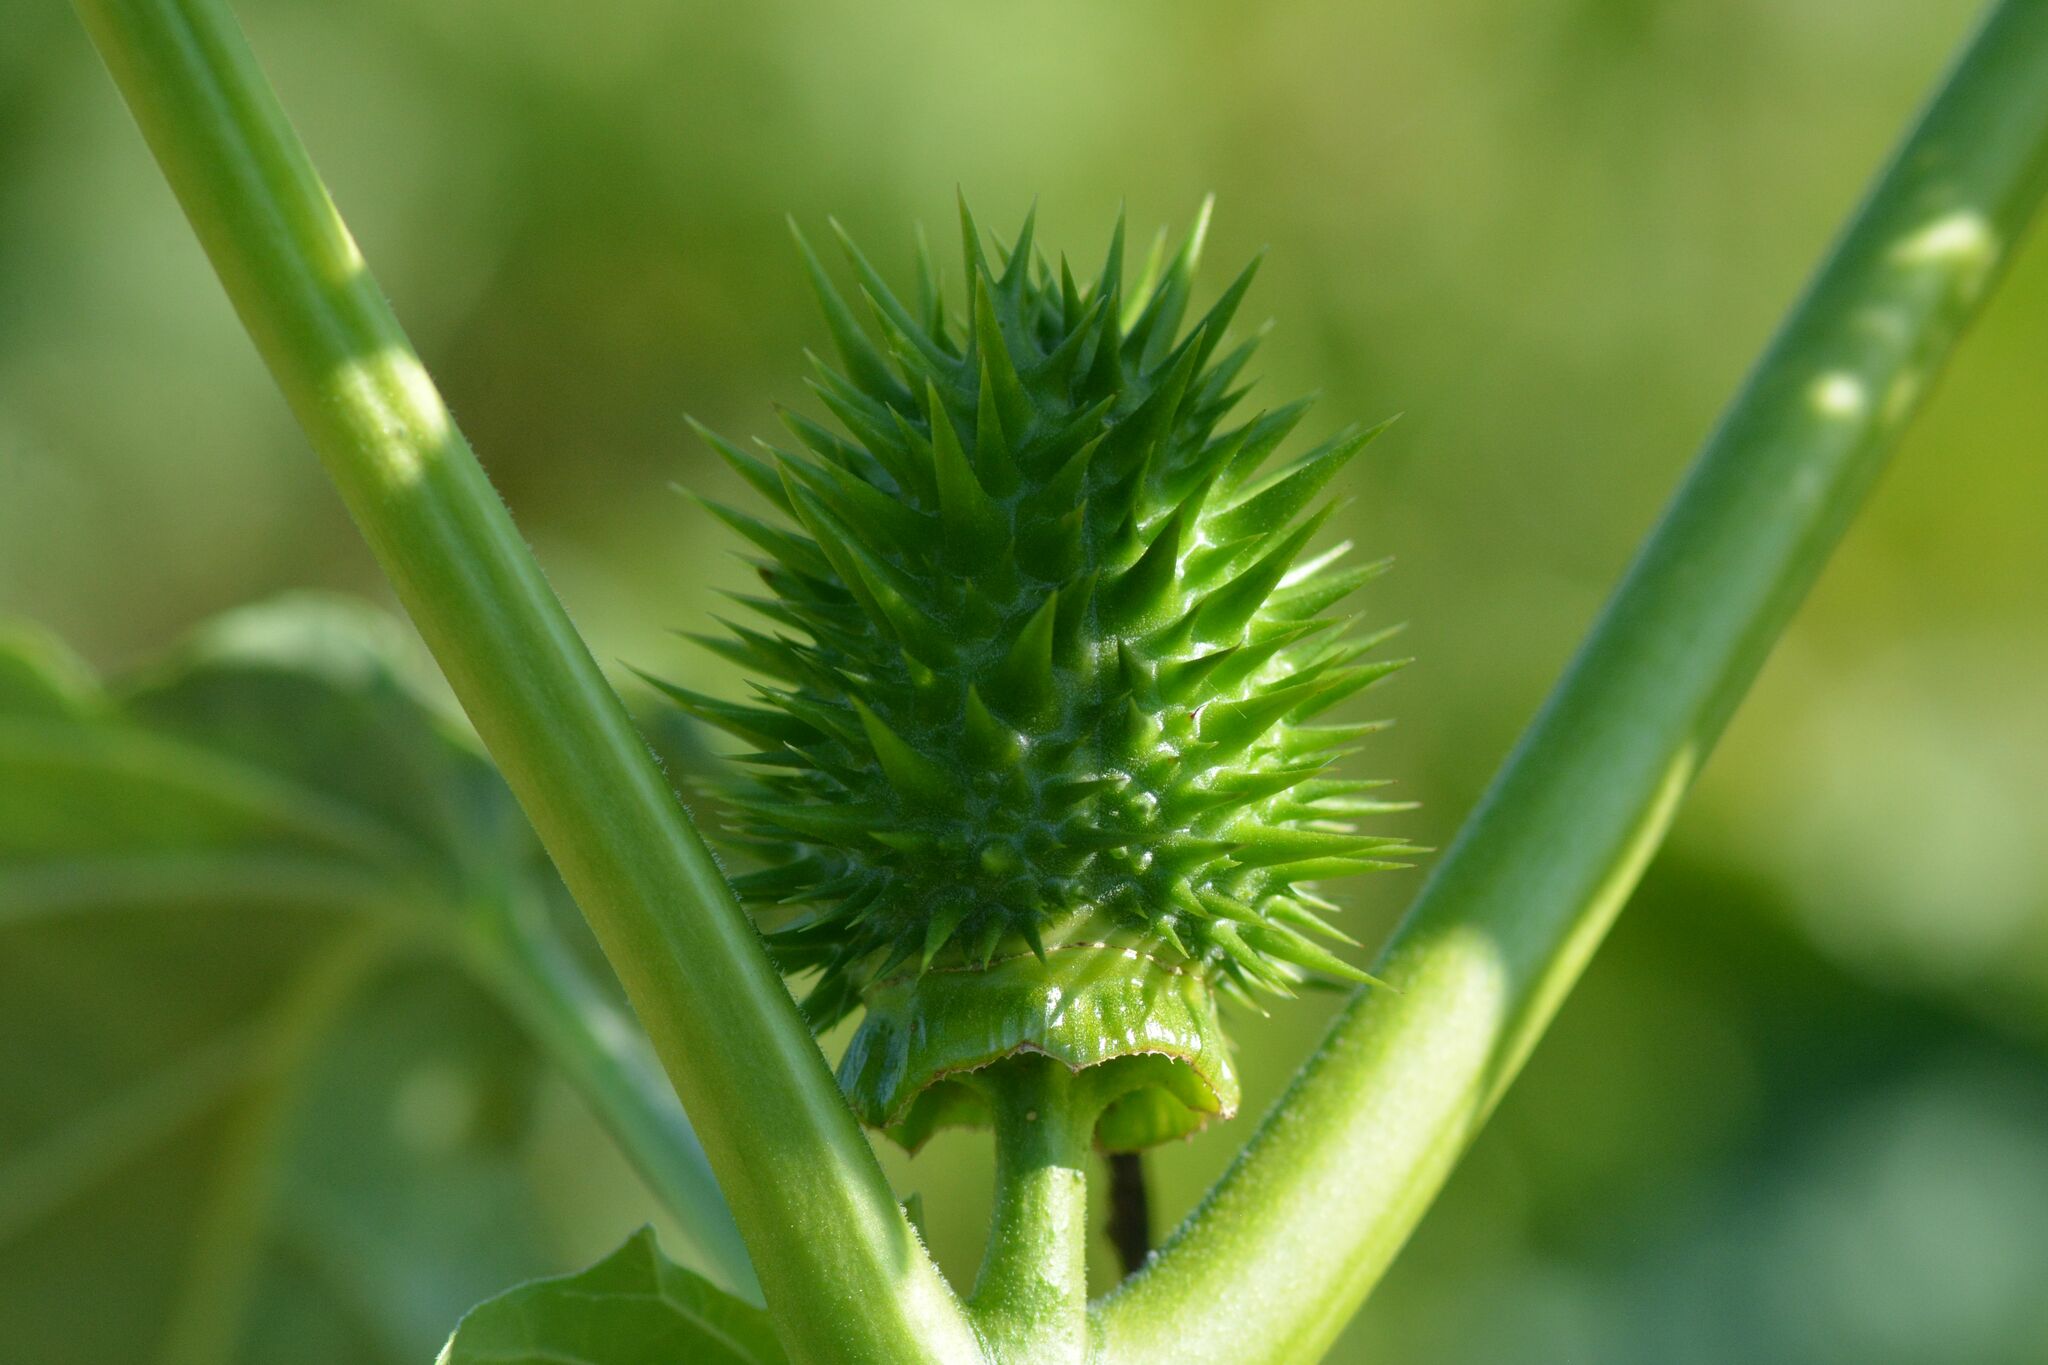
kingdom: Plantae
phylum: Tracheophyta
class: Magnoliopsida
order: Solanales
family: Solanaceae
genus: Datura
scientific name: Datura stramonium
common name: Thorn-apple
